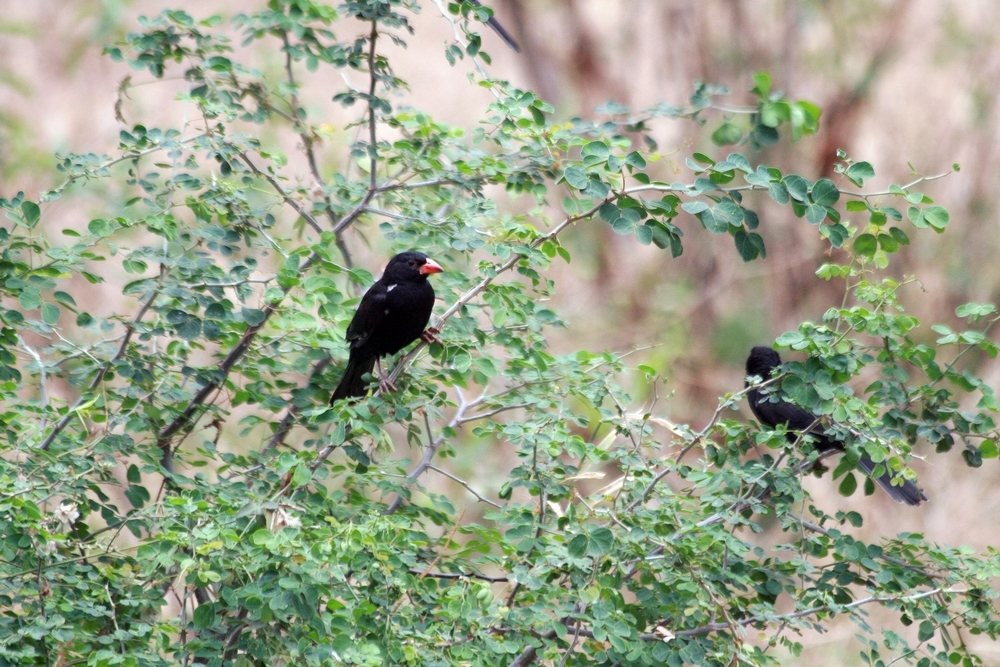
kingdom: Animalia
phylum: Chordata
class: Aves
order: Passeriformes
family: Ploceidae
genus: Bubalornis
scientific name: Bubalornis niger
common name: Red-billed buffalo weaver
